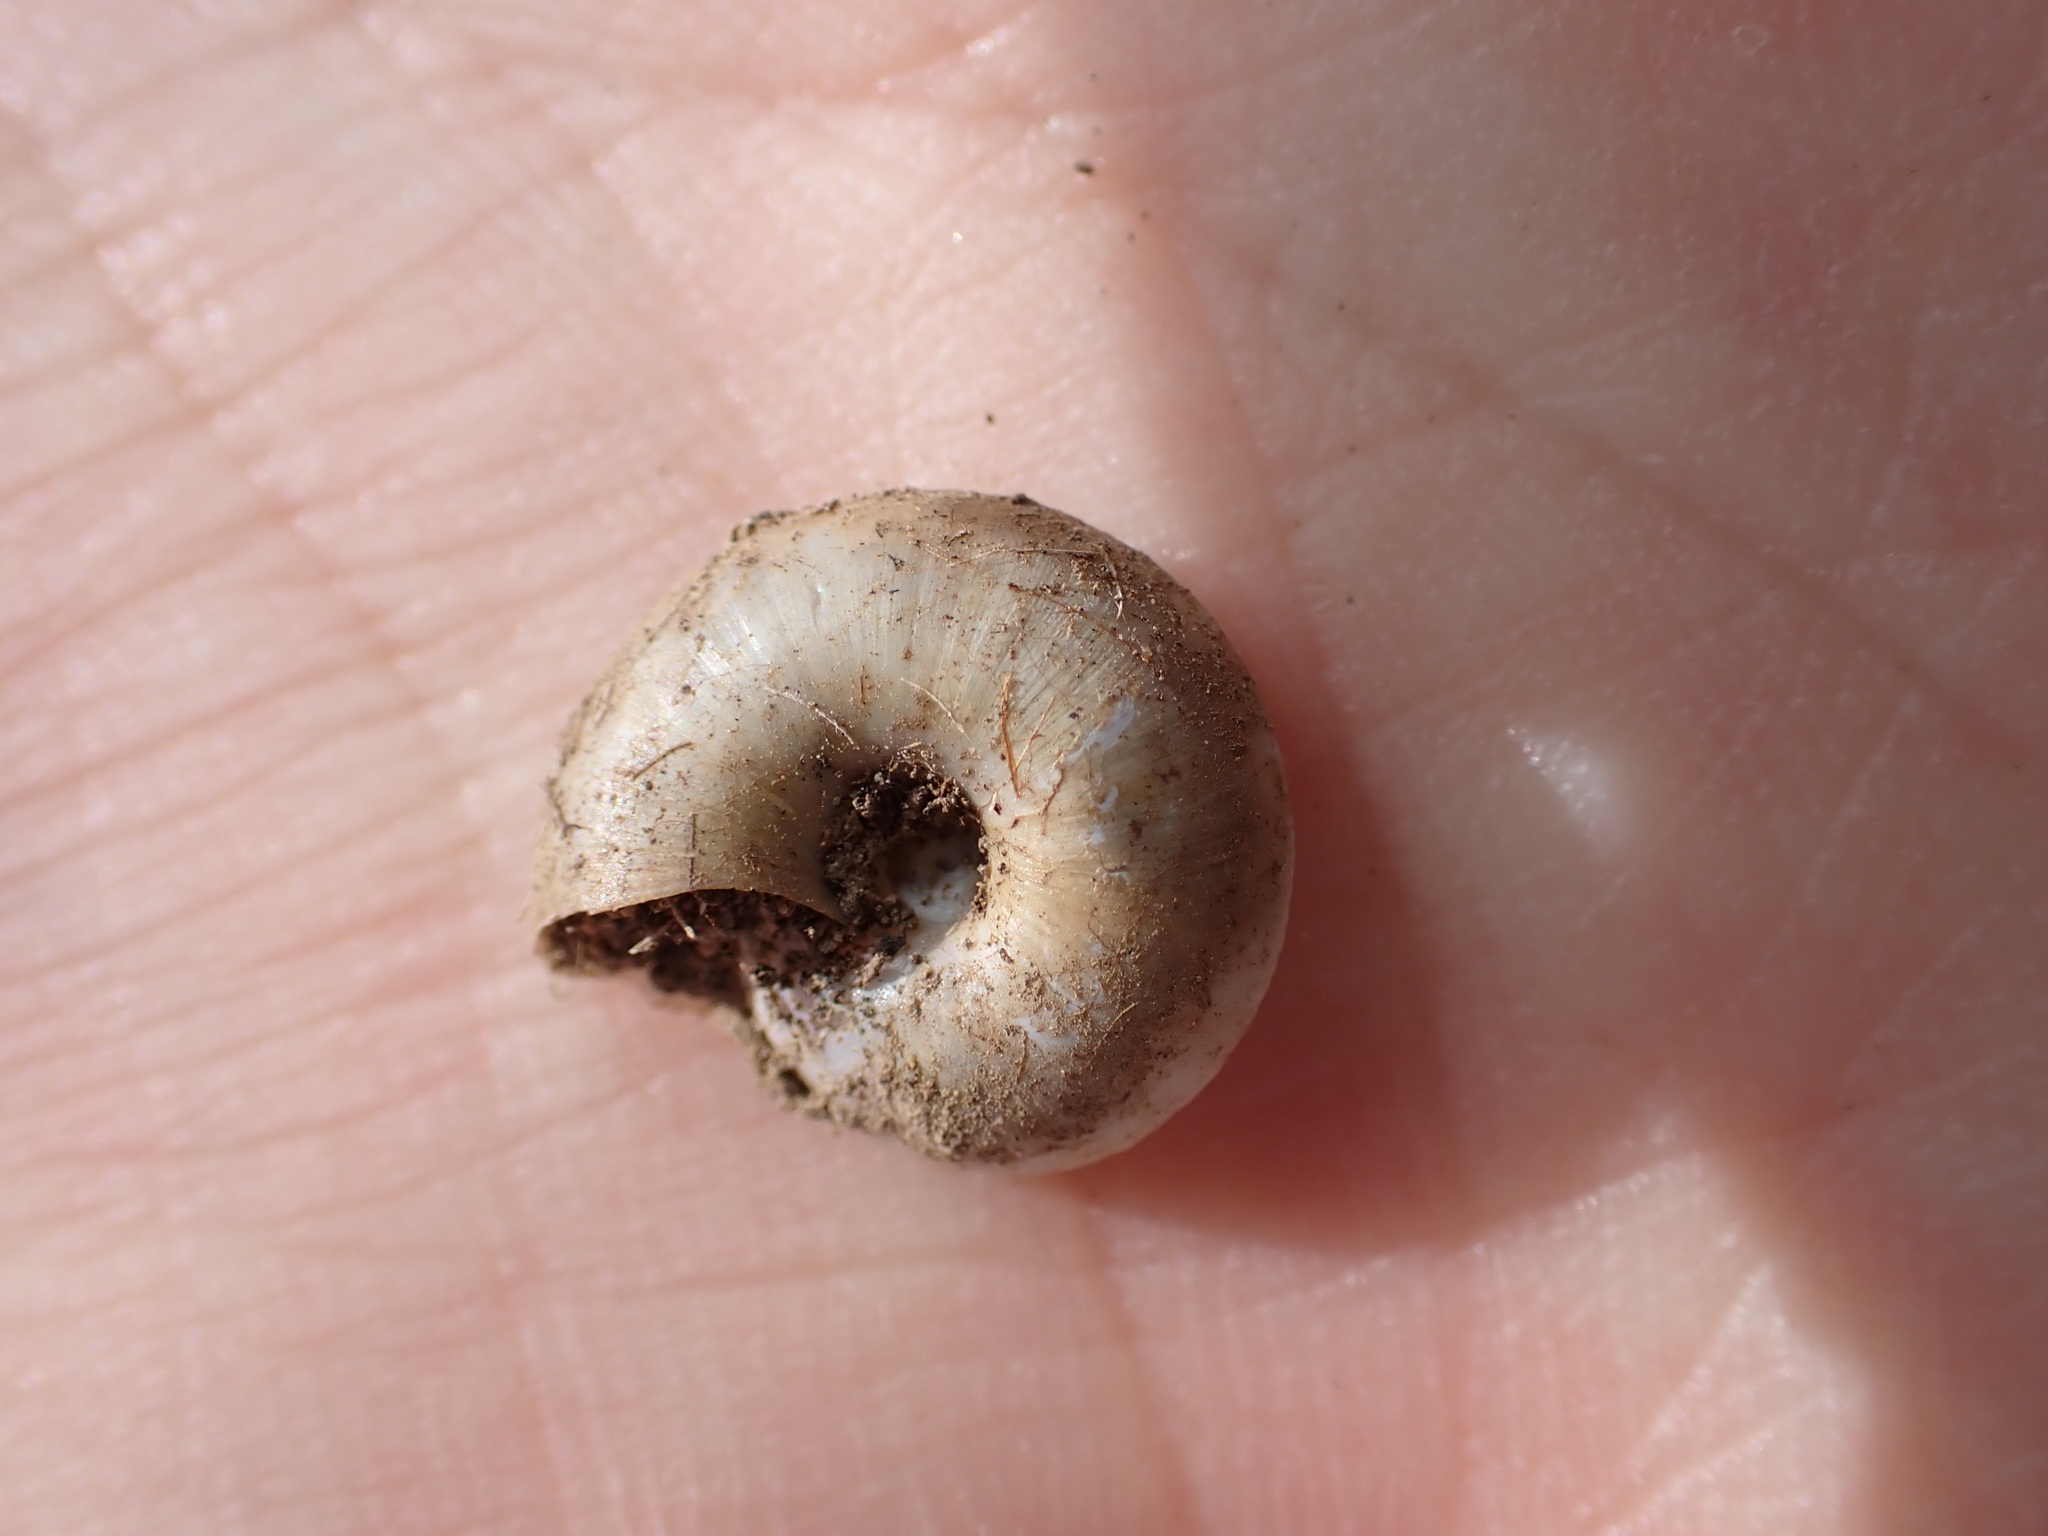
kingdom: Animalia
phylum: Mollusca
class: Gastropoda
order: Stylommatophora
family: Zonitidae
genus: Zonites
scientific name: Zonites algirus
